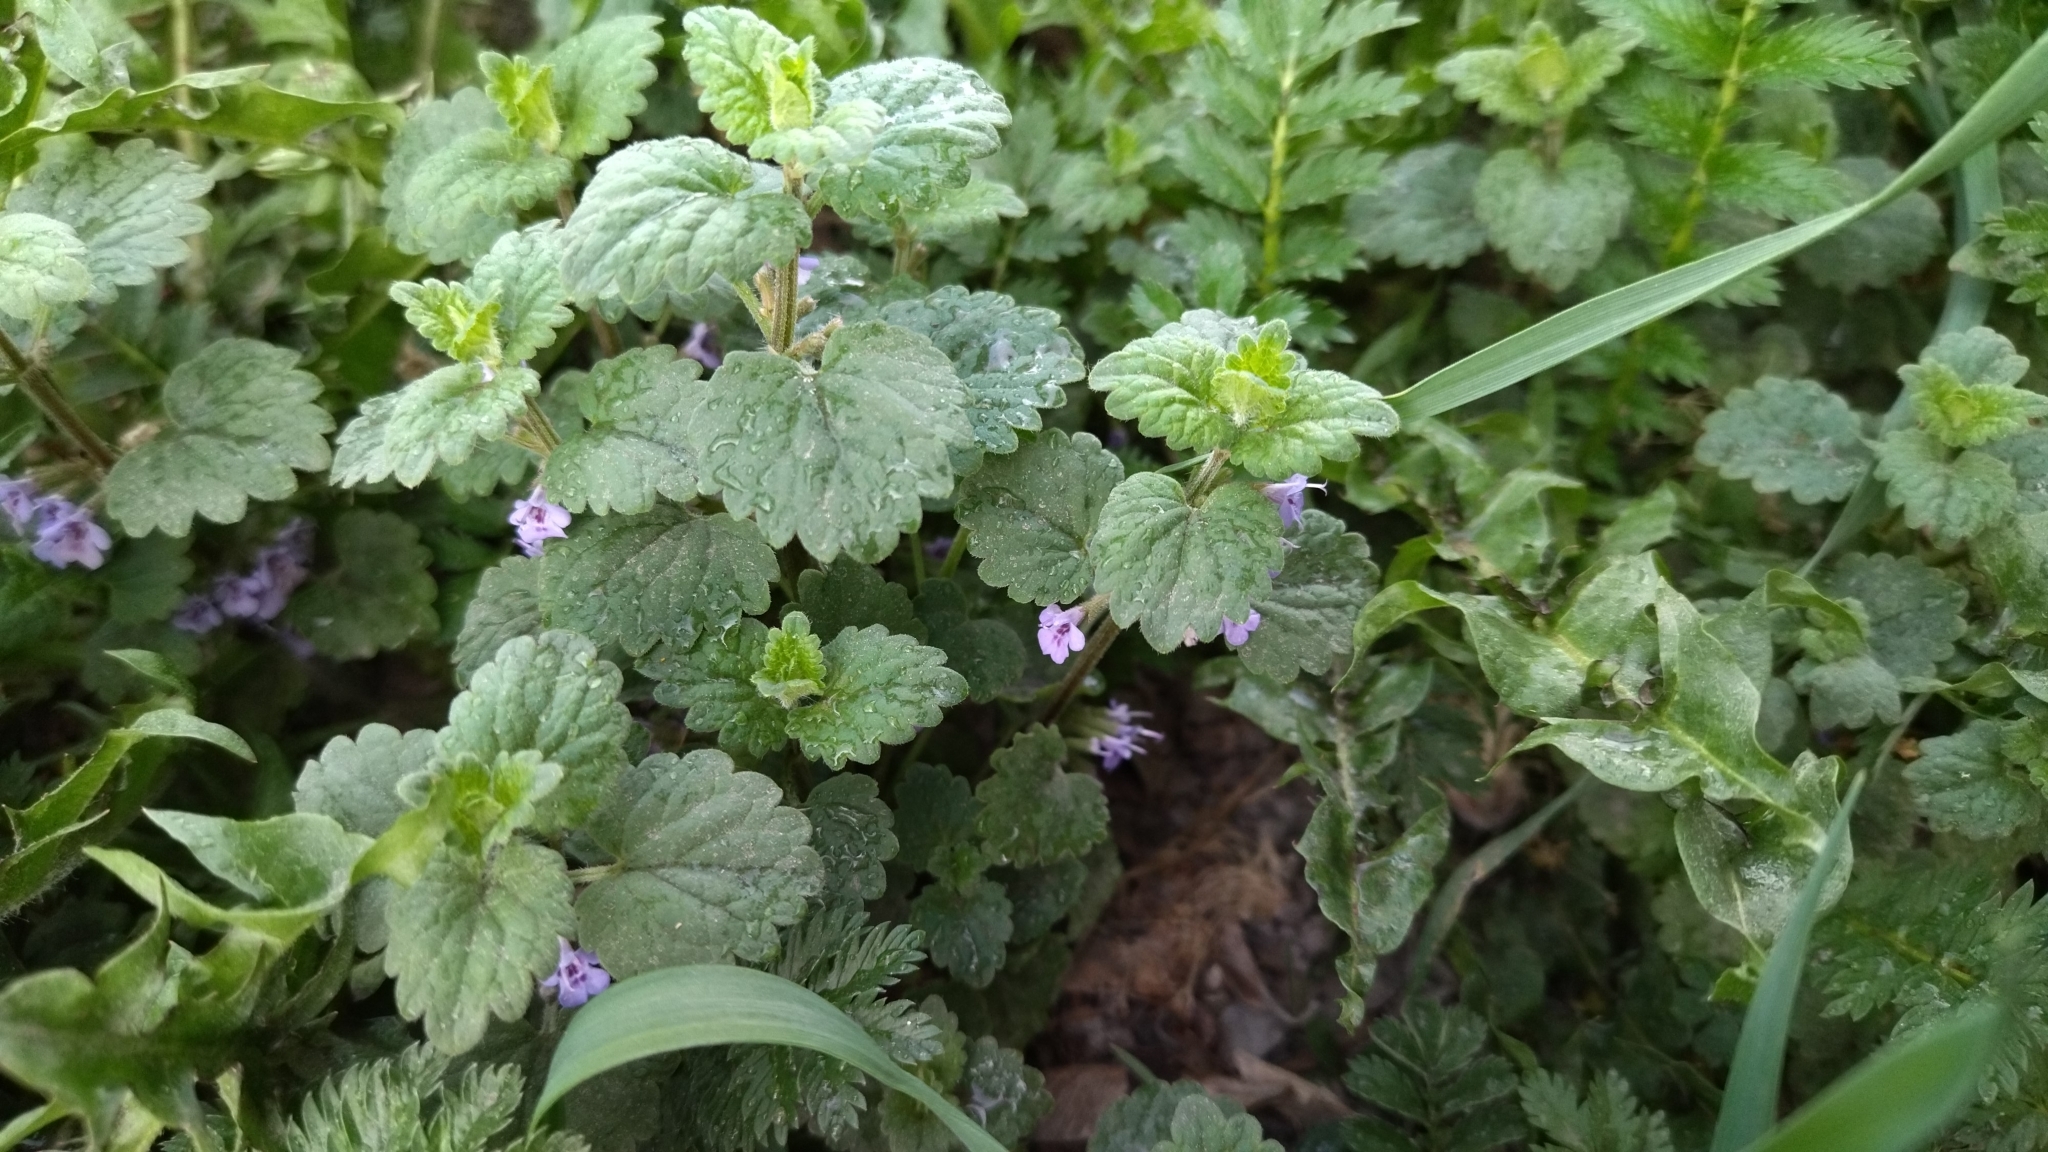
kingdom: Plantae
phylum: Tracheophyta
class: Magnoliopsida
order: Lamiales
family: Lamiaceae
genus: Glechoma
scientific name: Glechoma hederacea
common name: Ground ivy
